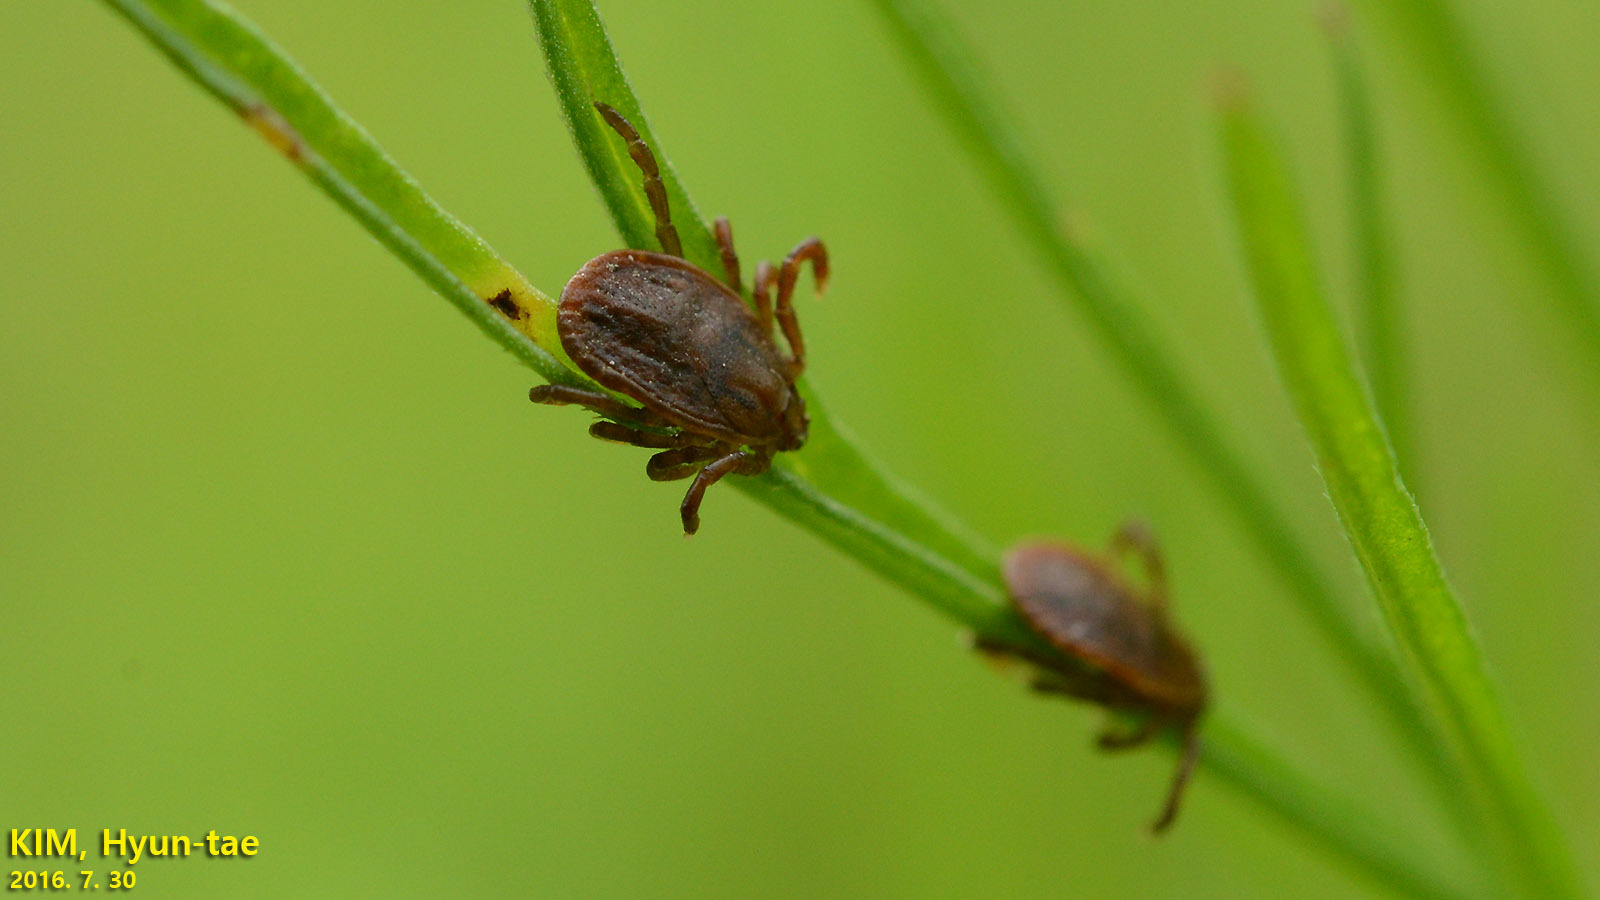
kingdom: Animalia
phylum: Arthropoda
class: Arachnida
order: Ixodida
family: Ixodidae
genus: Haemaphysalis
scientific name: Haemaphysalis longicornis
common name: Bush tick
